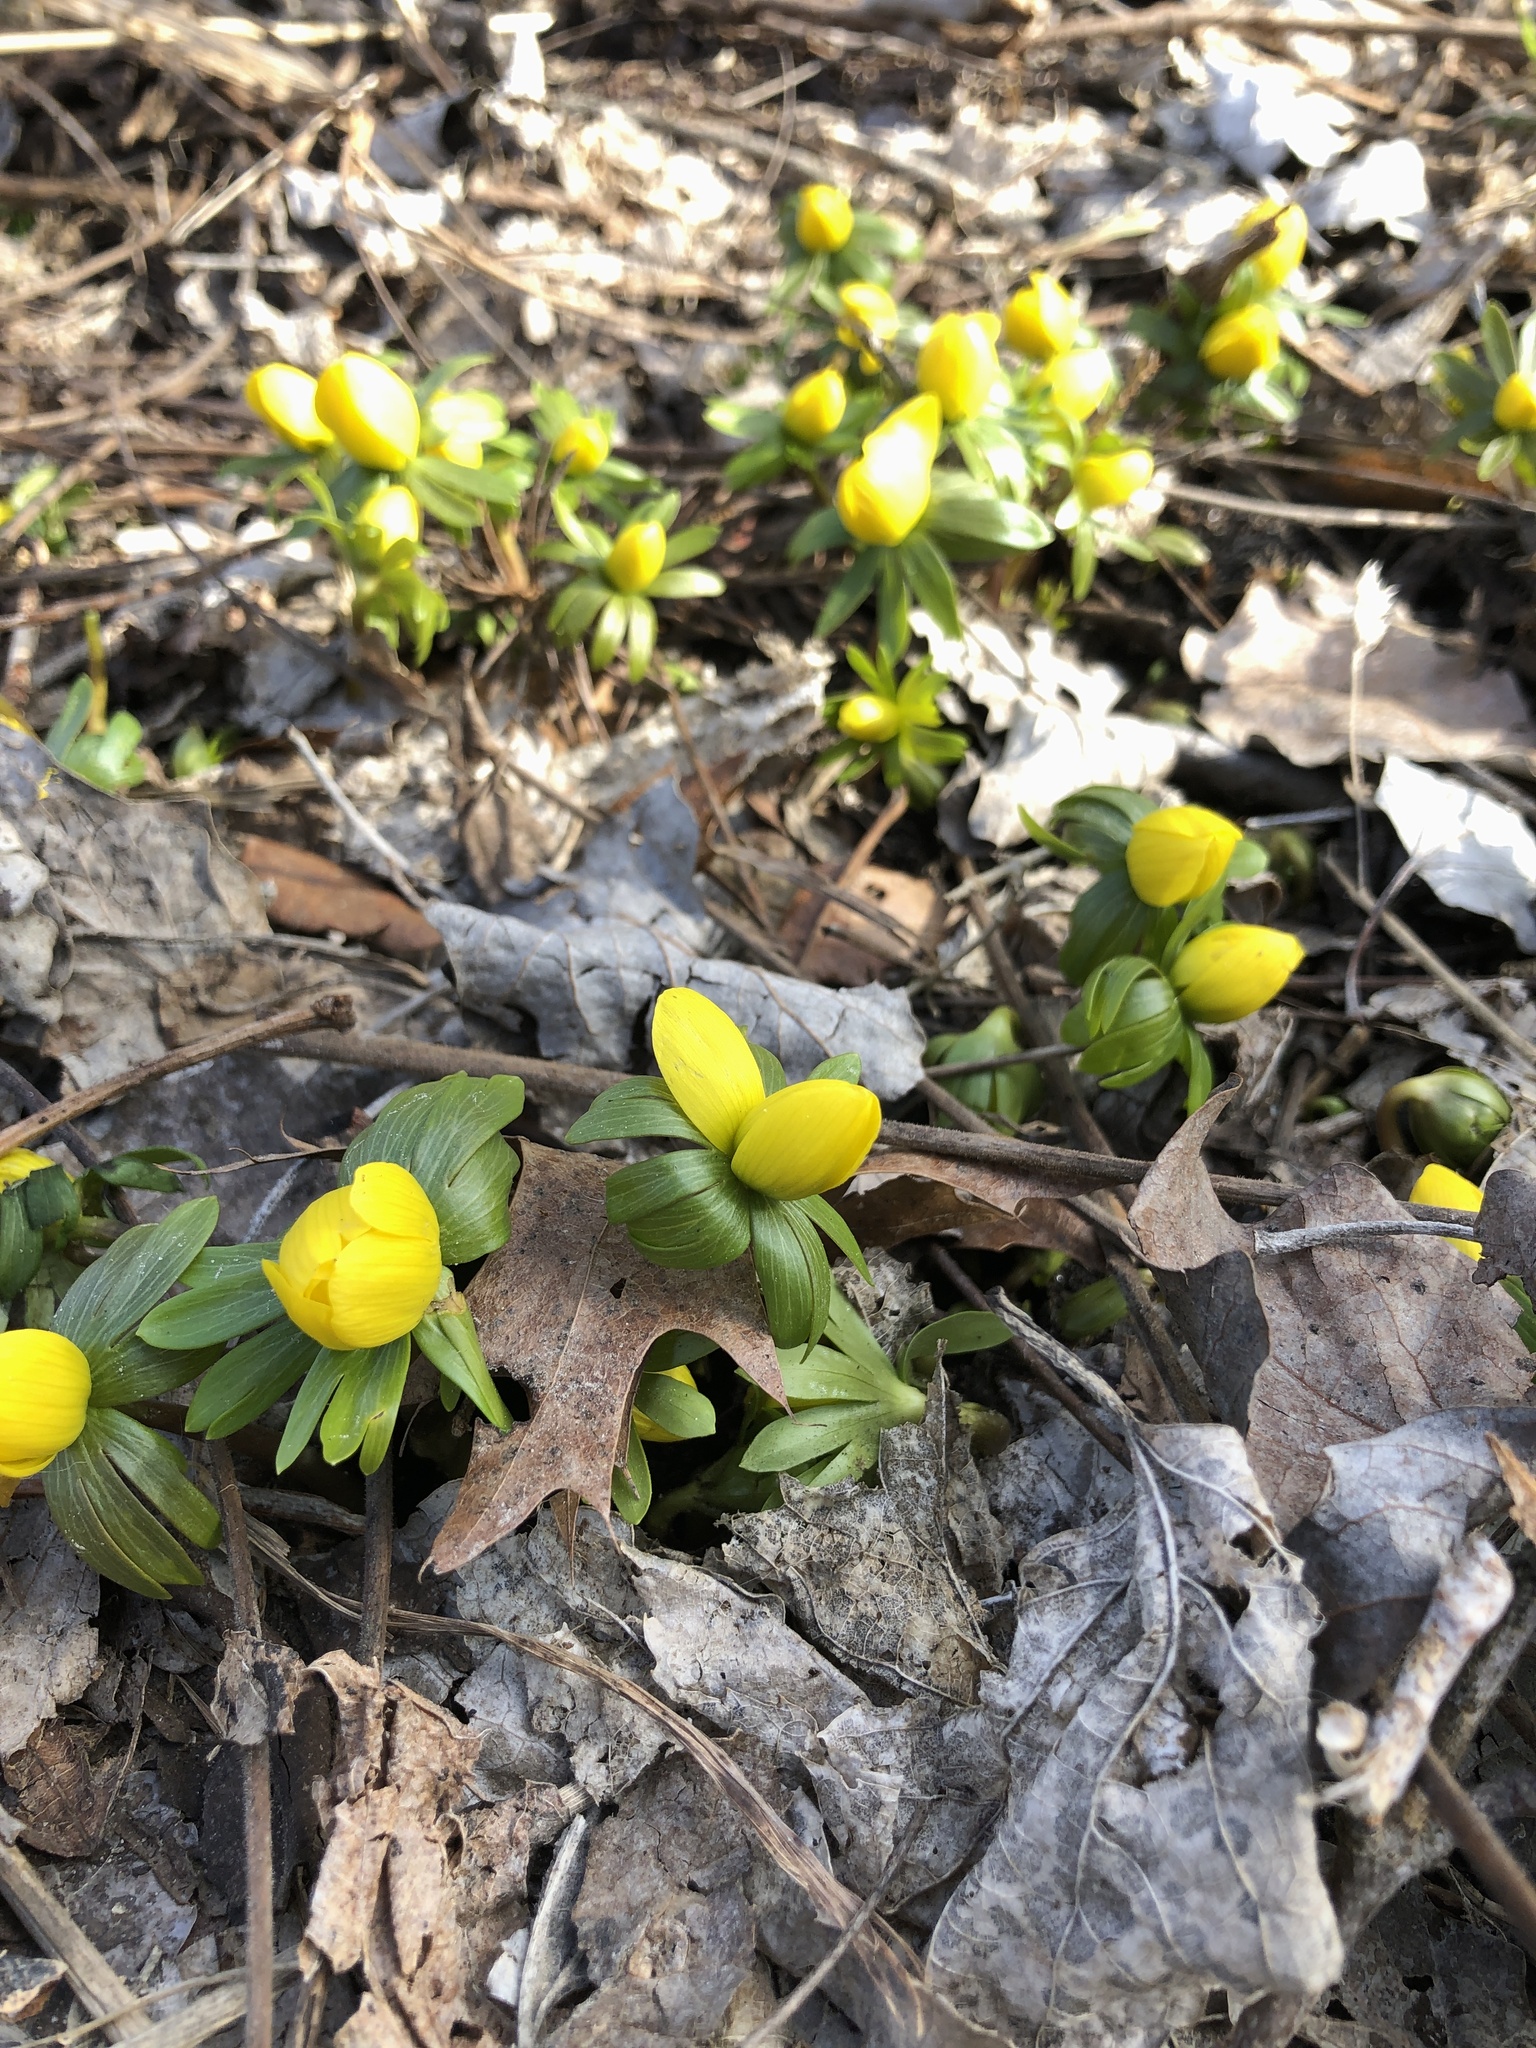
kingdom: Plantae
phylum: Tracheophyta
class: Magnoliopsida
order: Ranunculales
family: Ranunculaceae
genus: Eranthis
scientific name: Eranthis hyemalis
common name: Winter aconite
